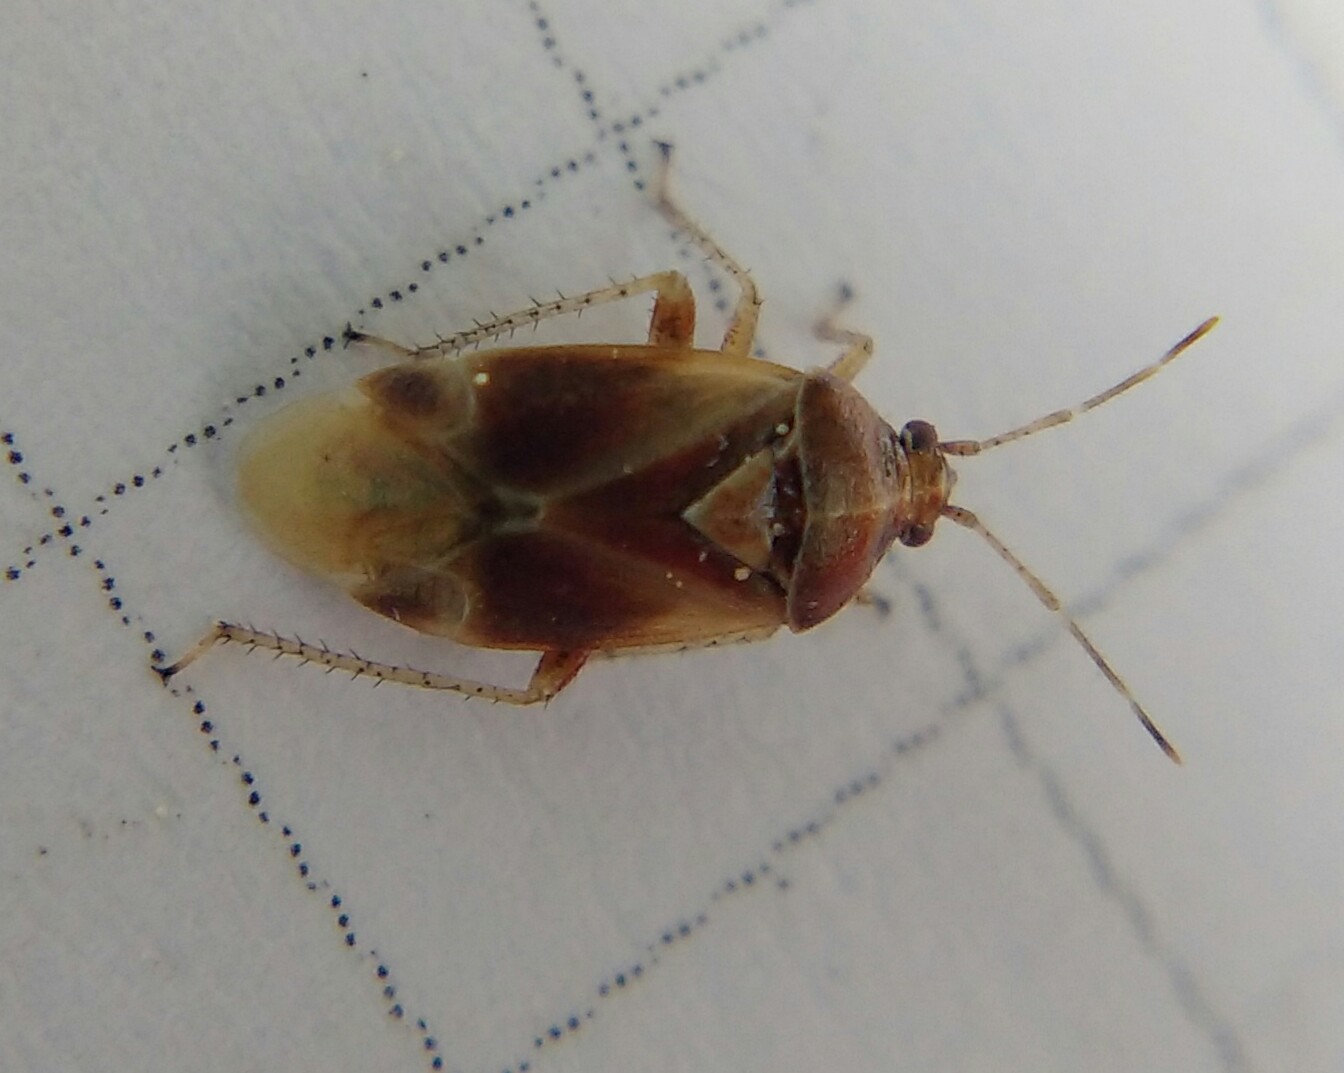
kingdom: Animalia
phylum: Arthropoda
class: Insecta
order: Hemiptera
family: Miridae
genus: Harpocera
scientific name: Harpocera hellenica
